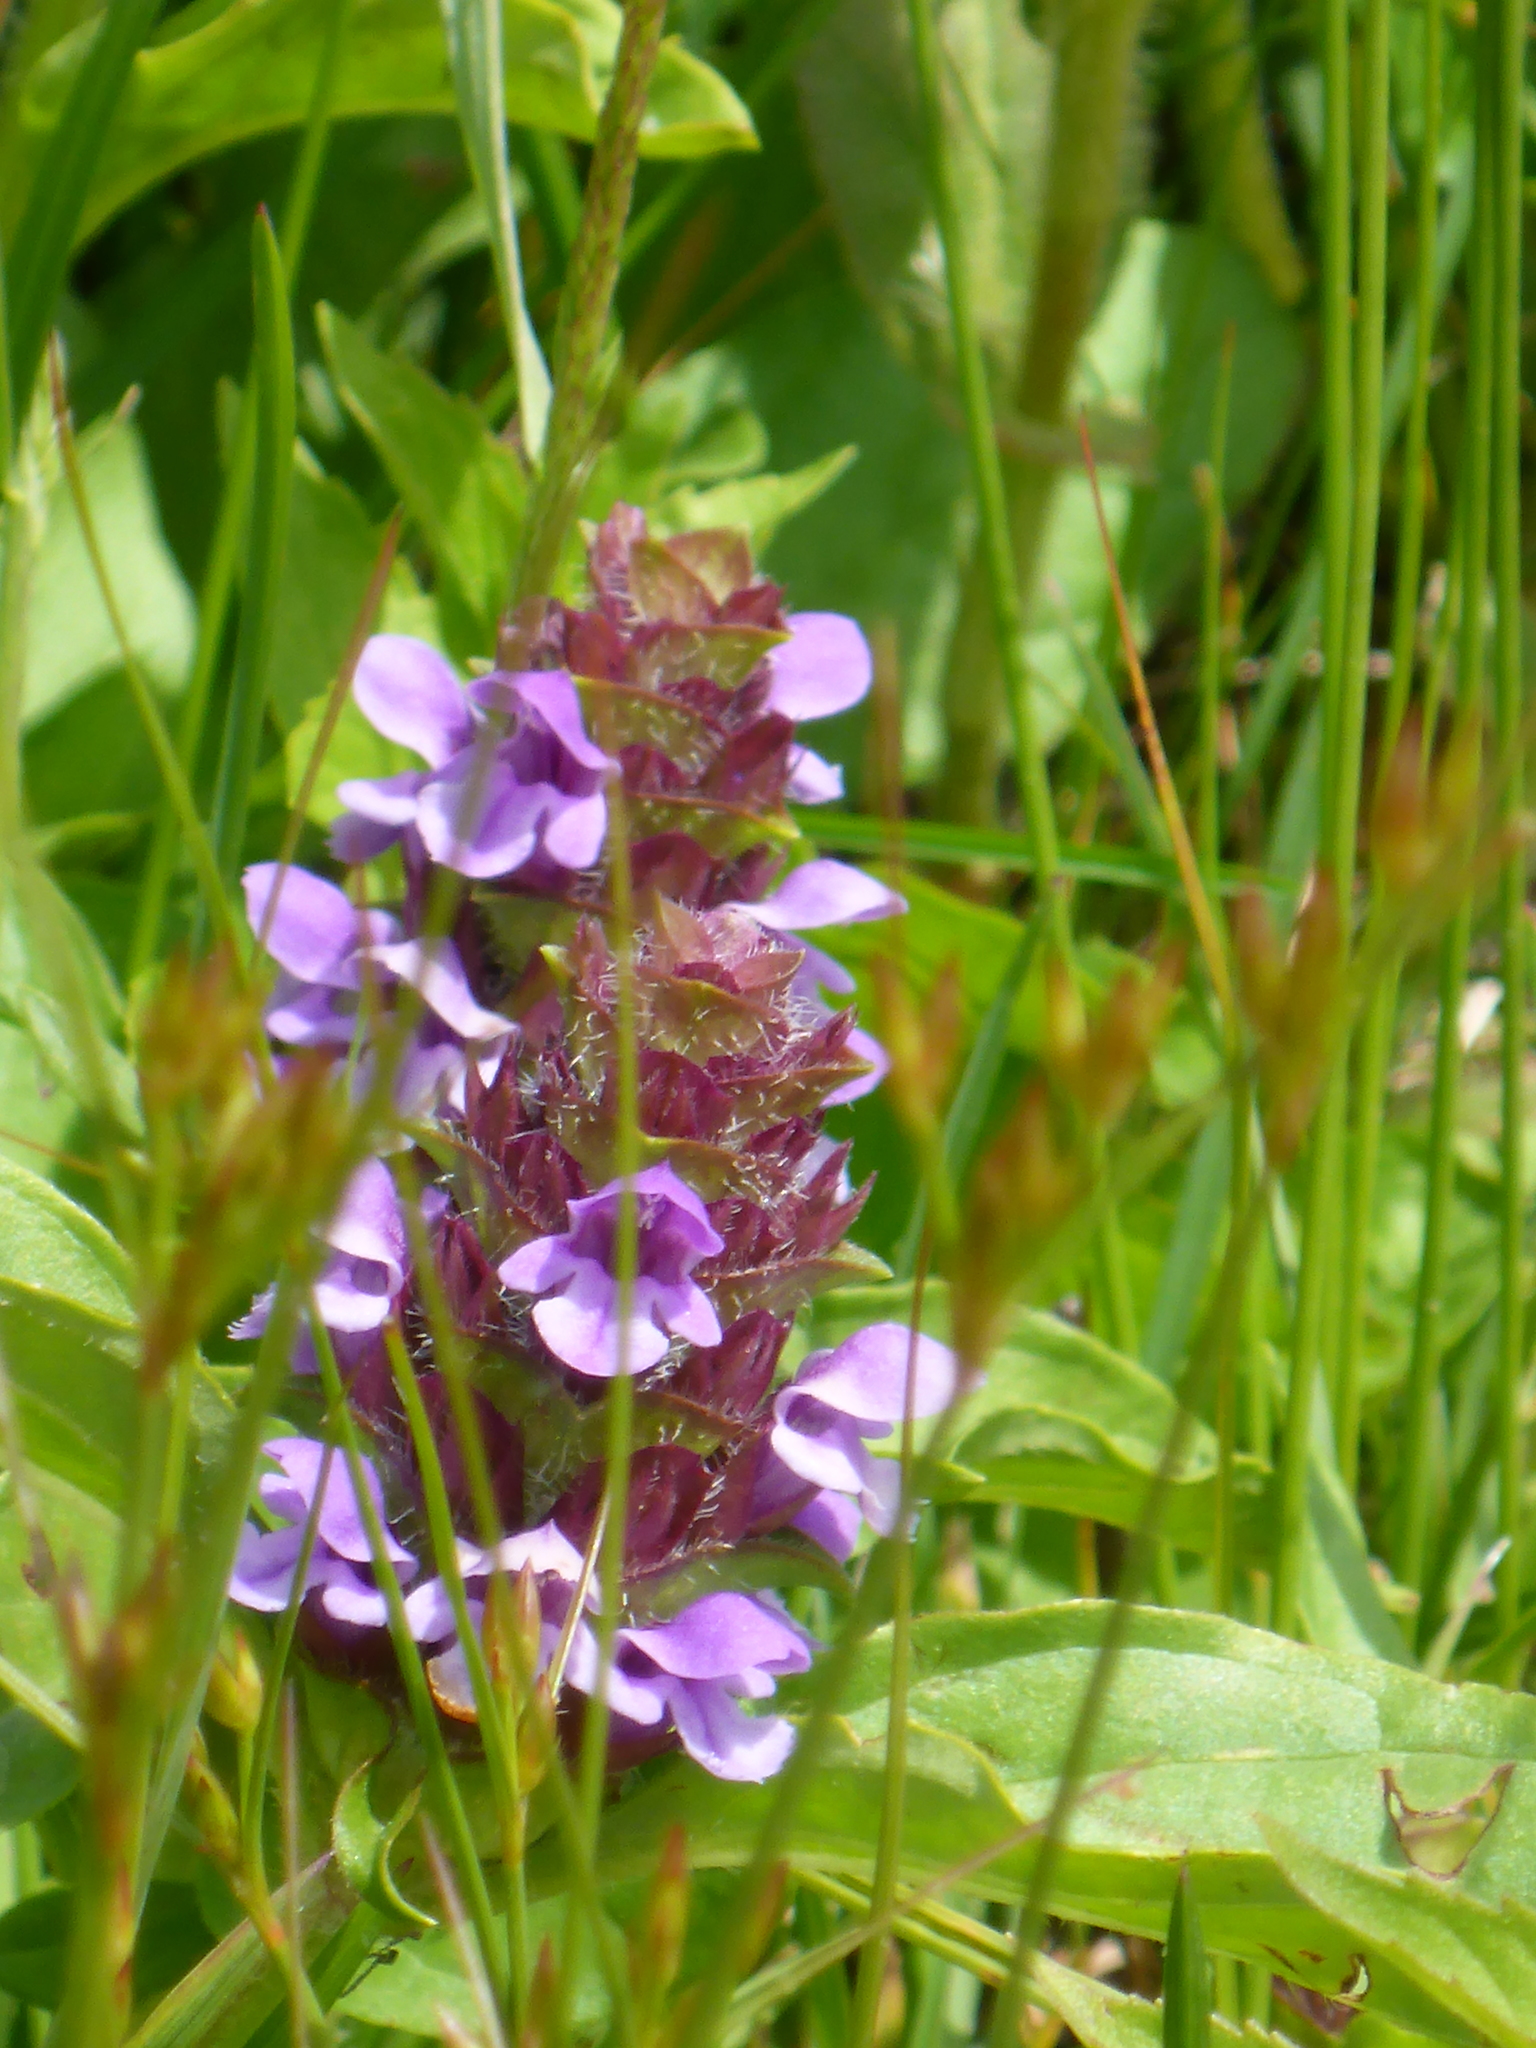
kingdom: Plantae
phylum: Tracheophyta
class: Magnoliopsida
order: Lamiales
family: Lamiaceae
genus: Prunella
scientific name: Prunella vulgaris
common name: Heal-all
